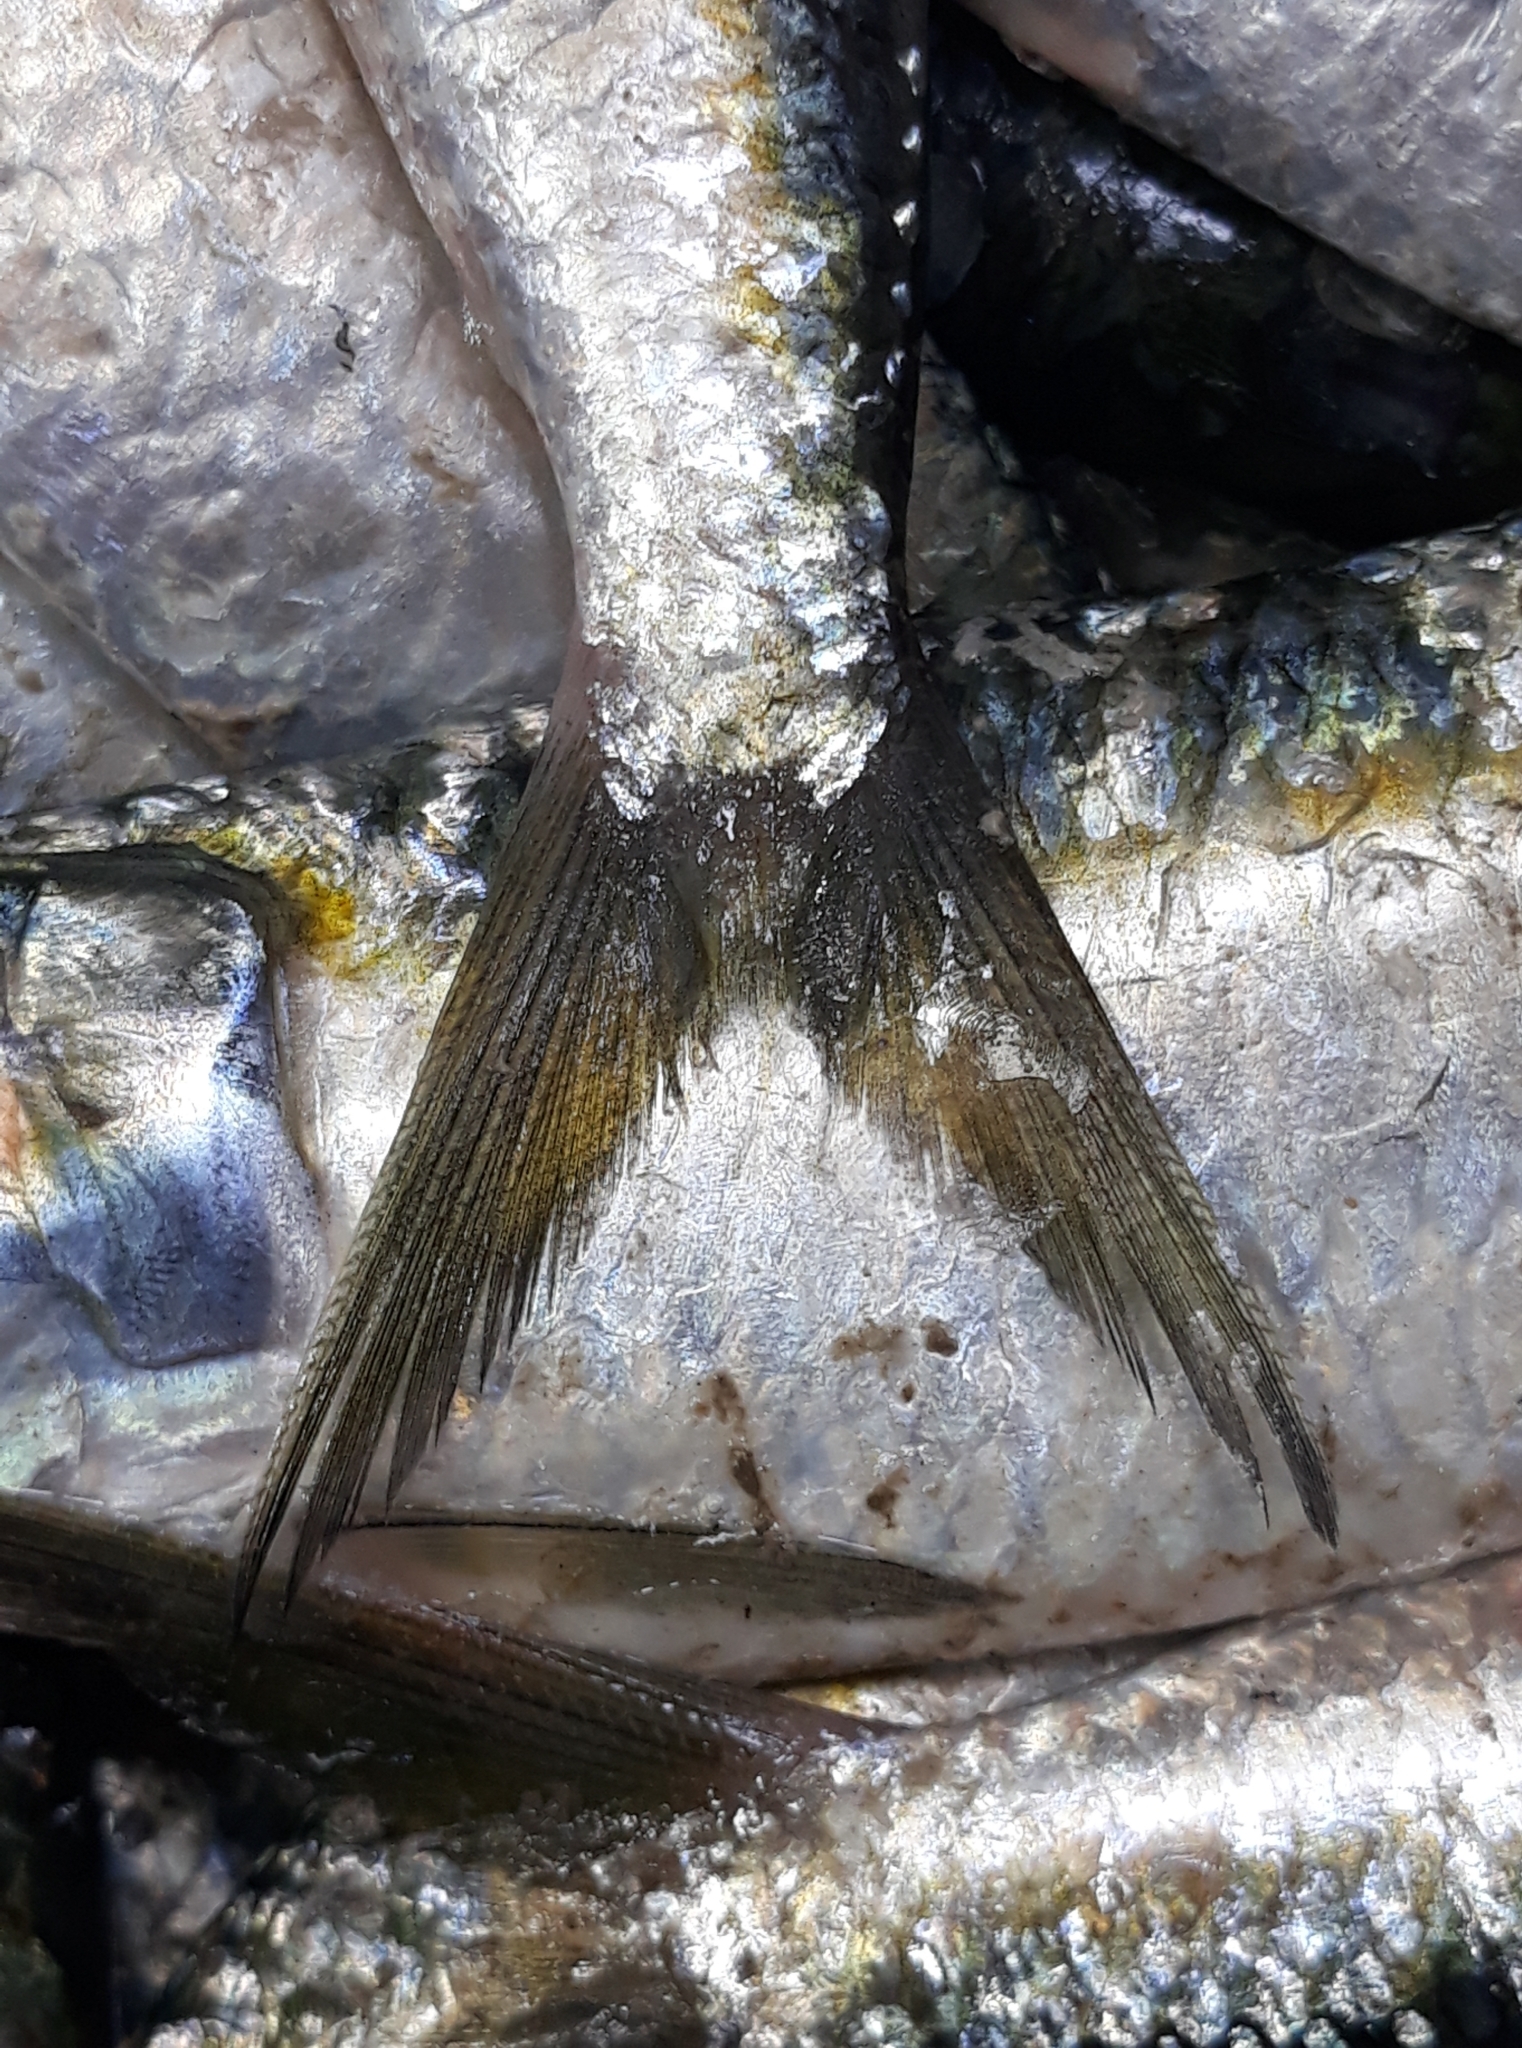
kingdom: Animalia
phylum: Chordata
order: Clupeiformes
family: Clupeidae
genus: Sardinella
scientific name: Sardinella aurita
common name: Round sardinella
